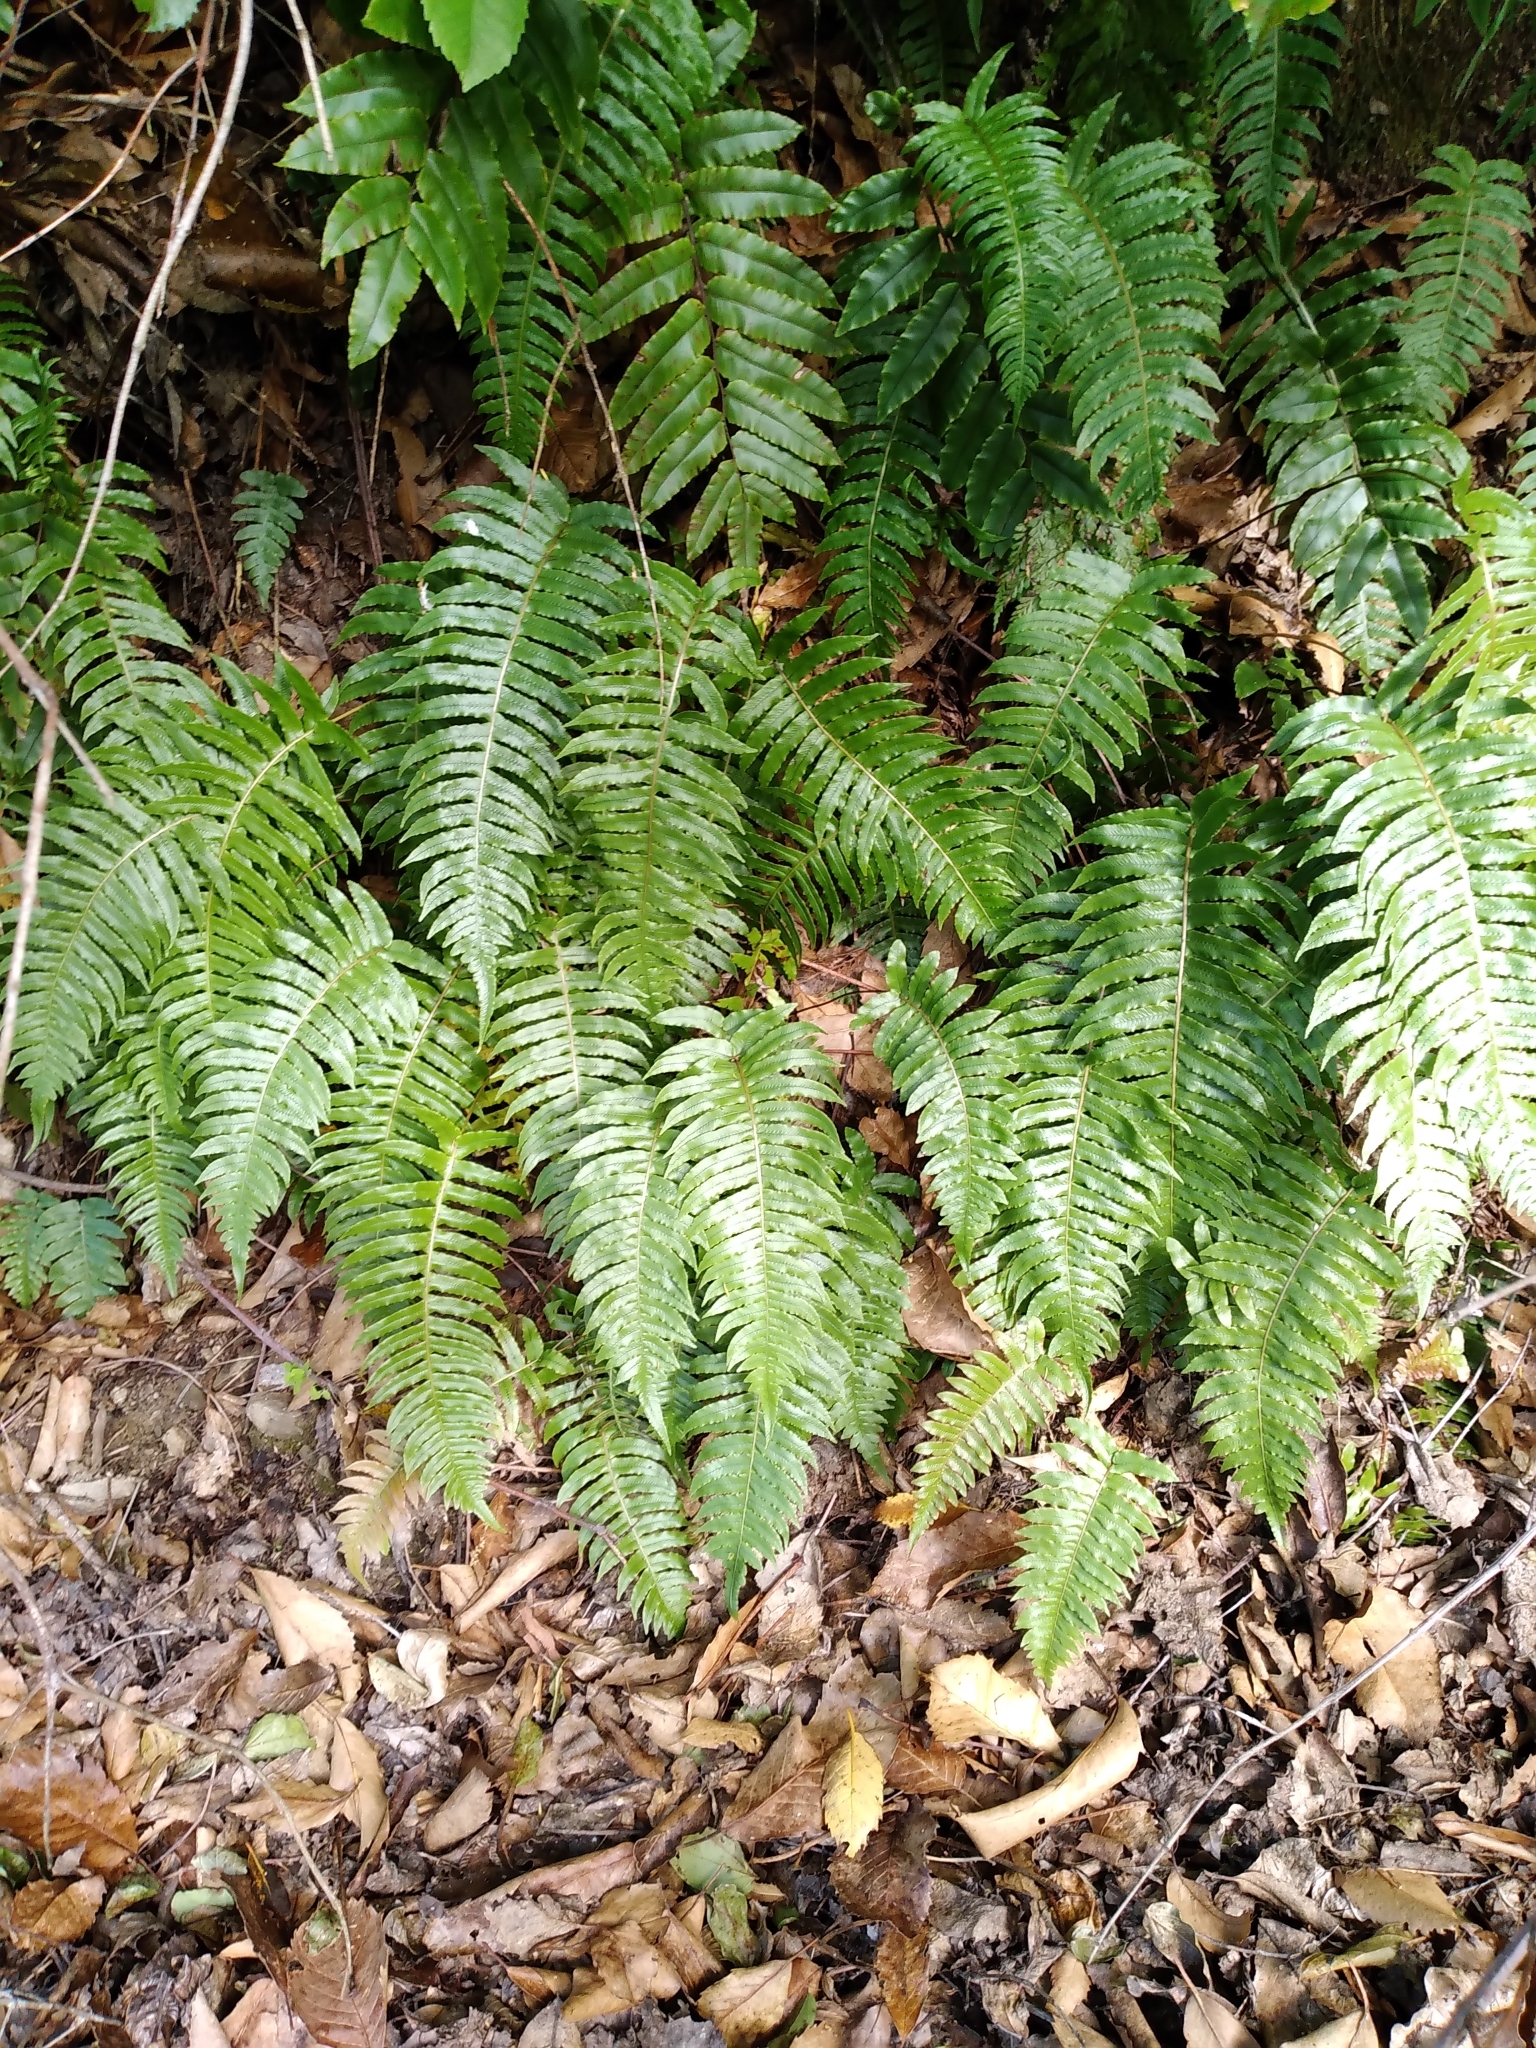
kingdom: Plantae
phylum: Tracheophyta
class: Polypodiopsida
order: Polypodiales
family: Blechnaceae
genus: Cranfillia
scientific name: Cranfillia deltoides
